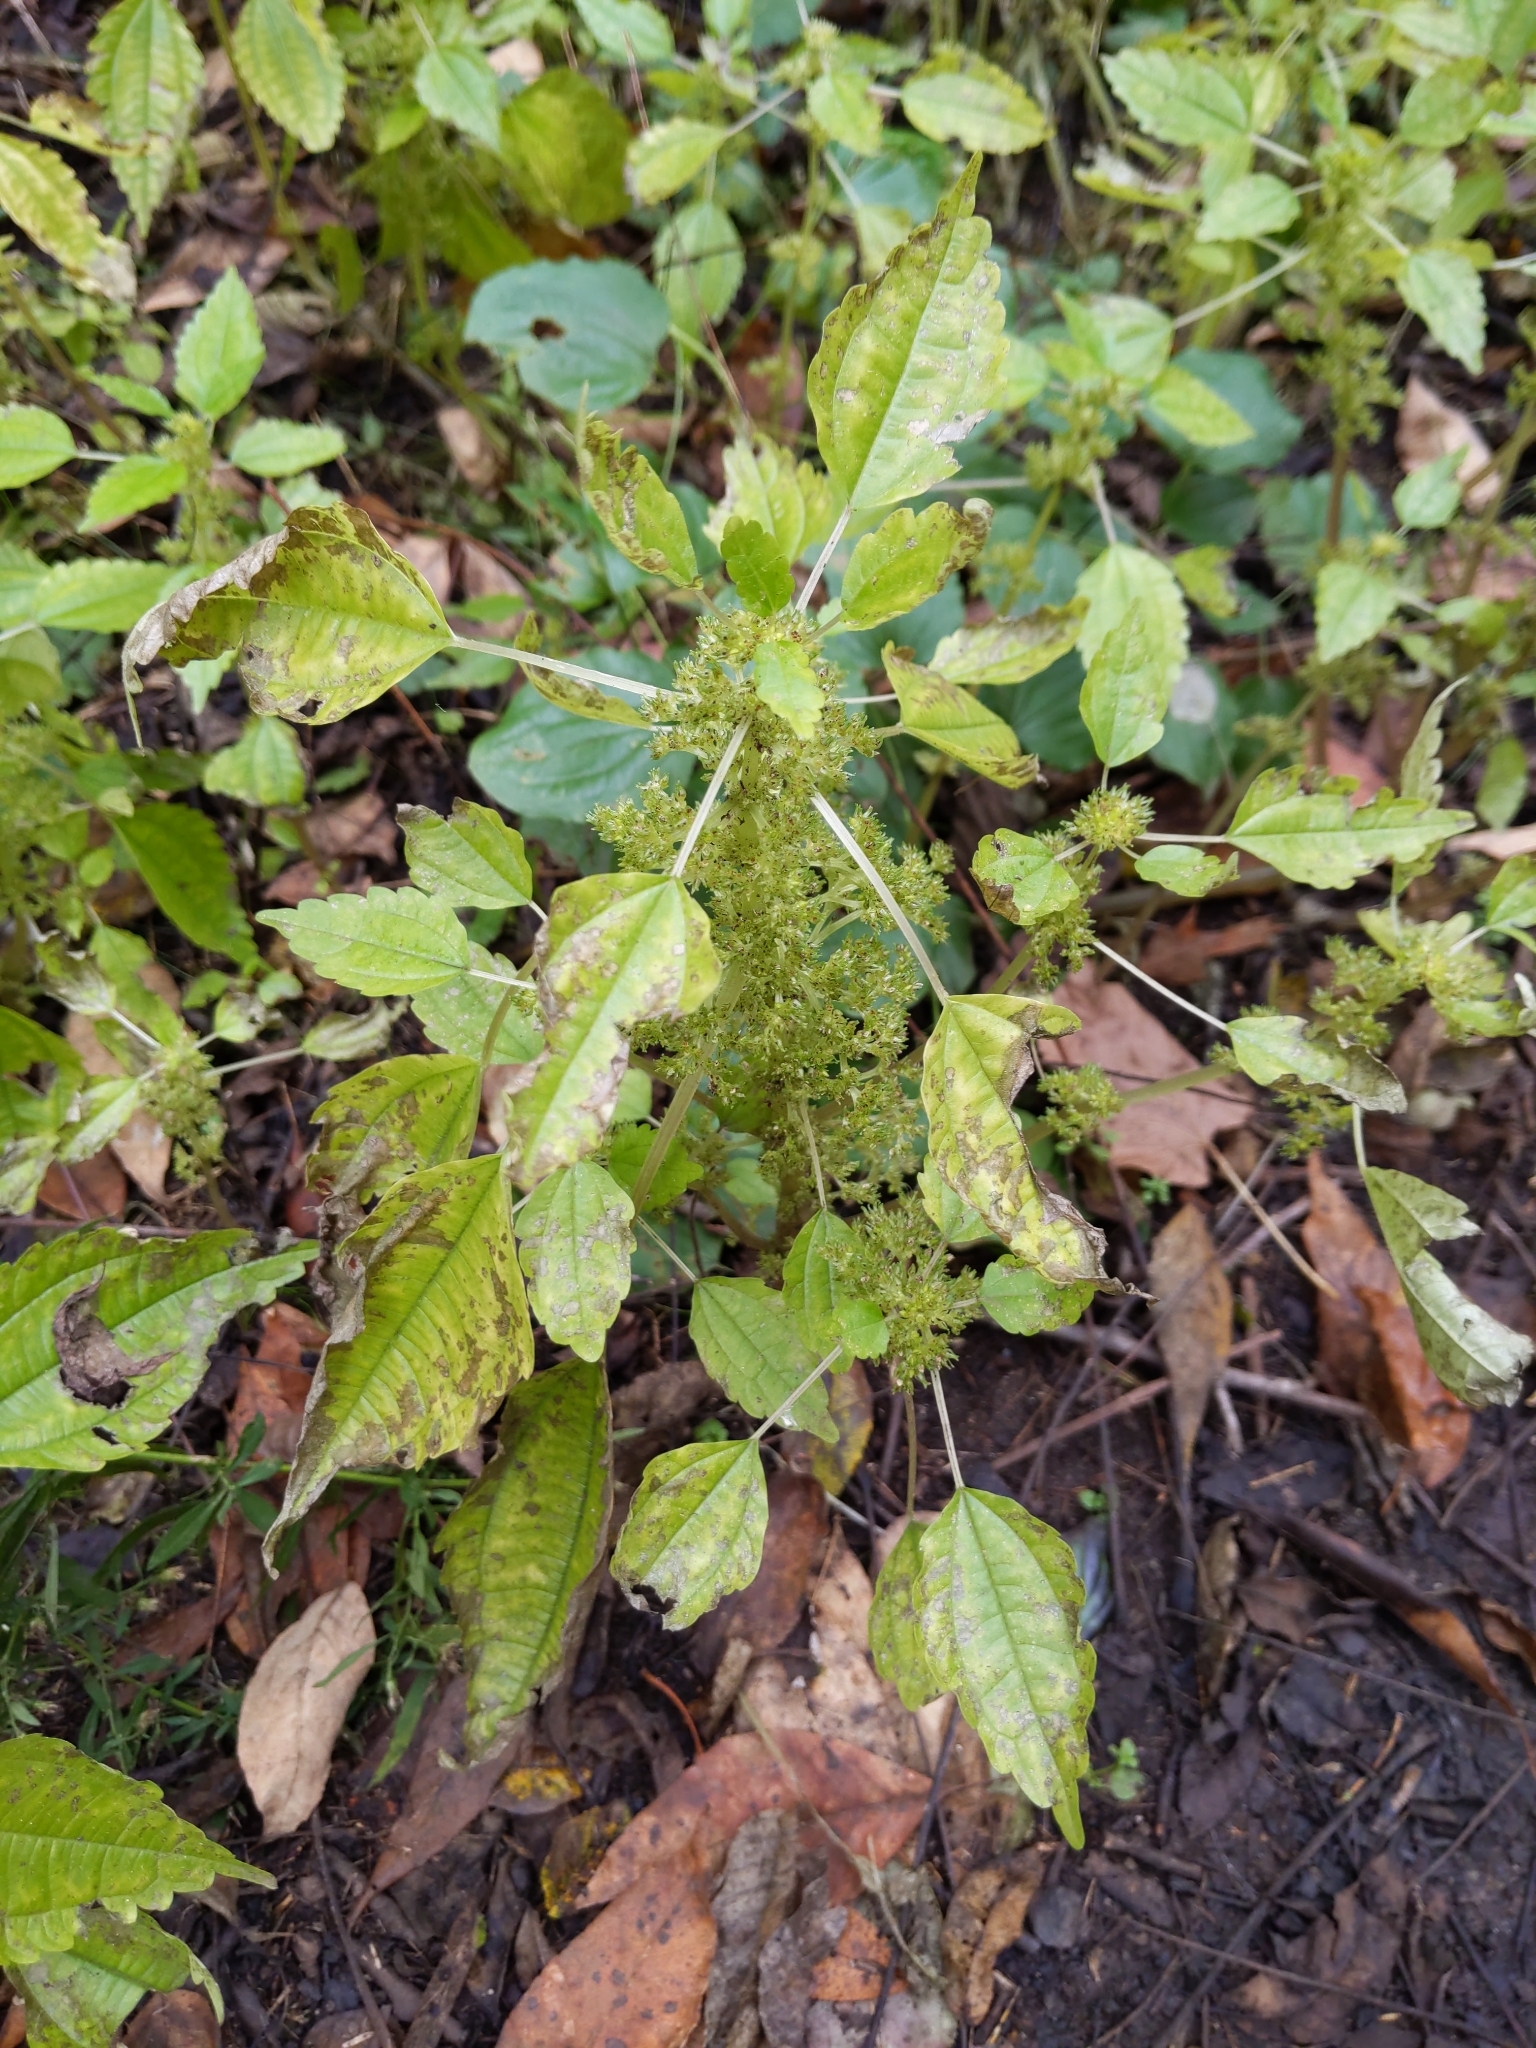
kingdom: Plantae
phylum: Tracheophyta
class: Magnoliopsida
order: Rosales
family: Urticaceae
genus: Pilea
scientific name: Pilea pumila
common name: Clearweed
